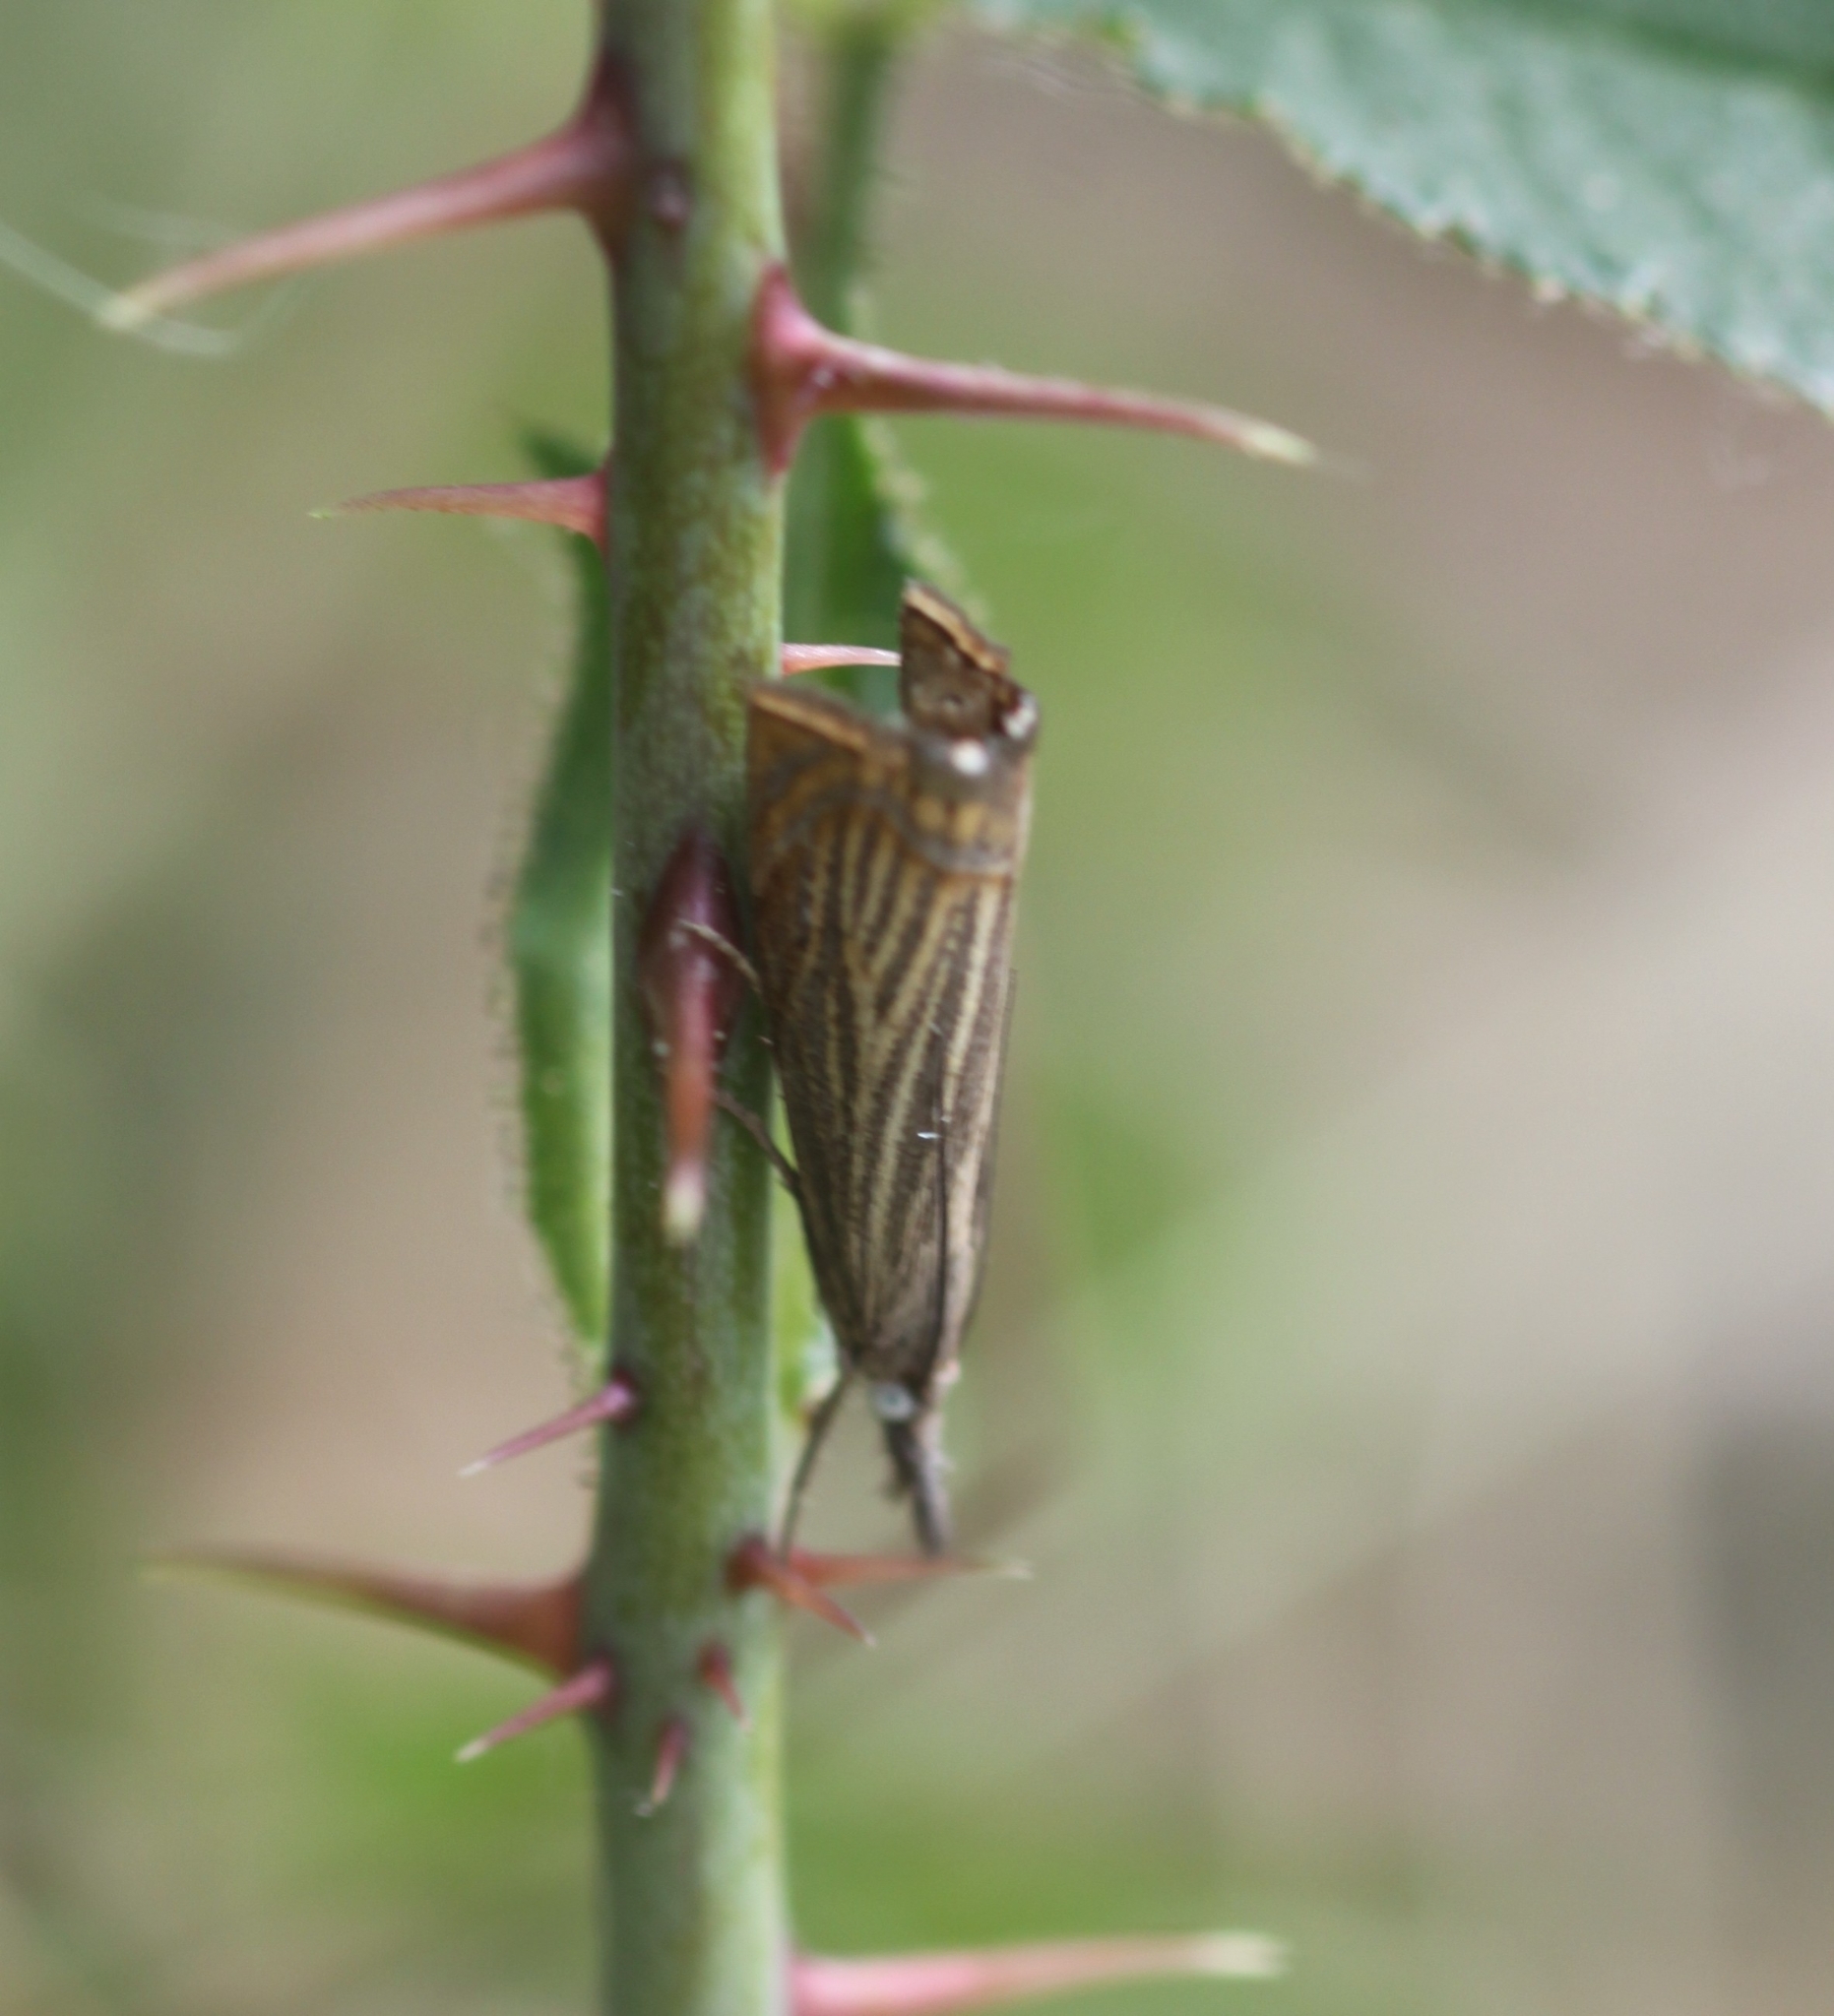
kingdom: Animalia
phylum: Arthropoda
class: Insecta
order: Lepidoptera
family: Crambidae
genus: Chrysoteuchia
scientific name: Chrysoteuchia culmella
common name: Garden grass-veneer
